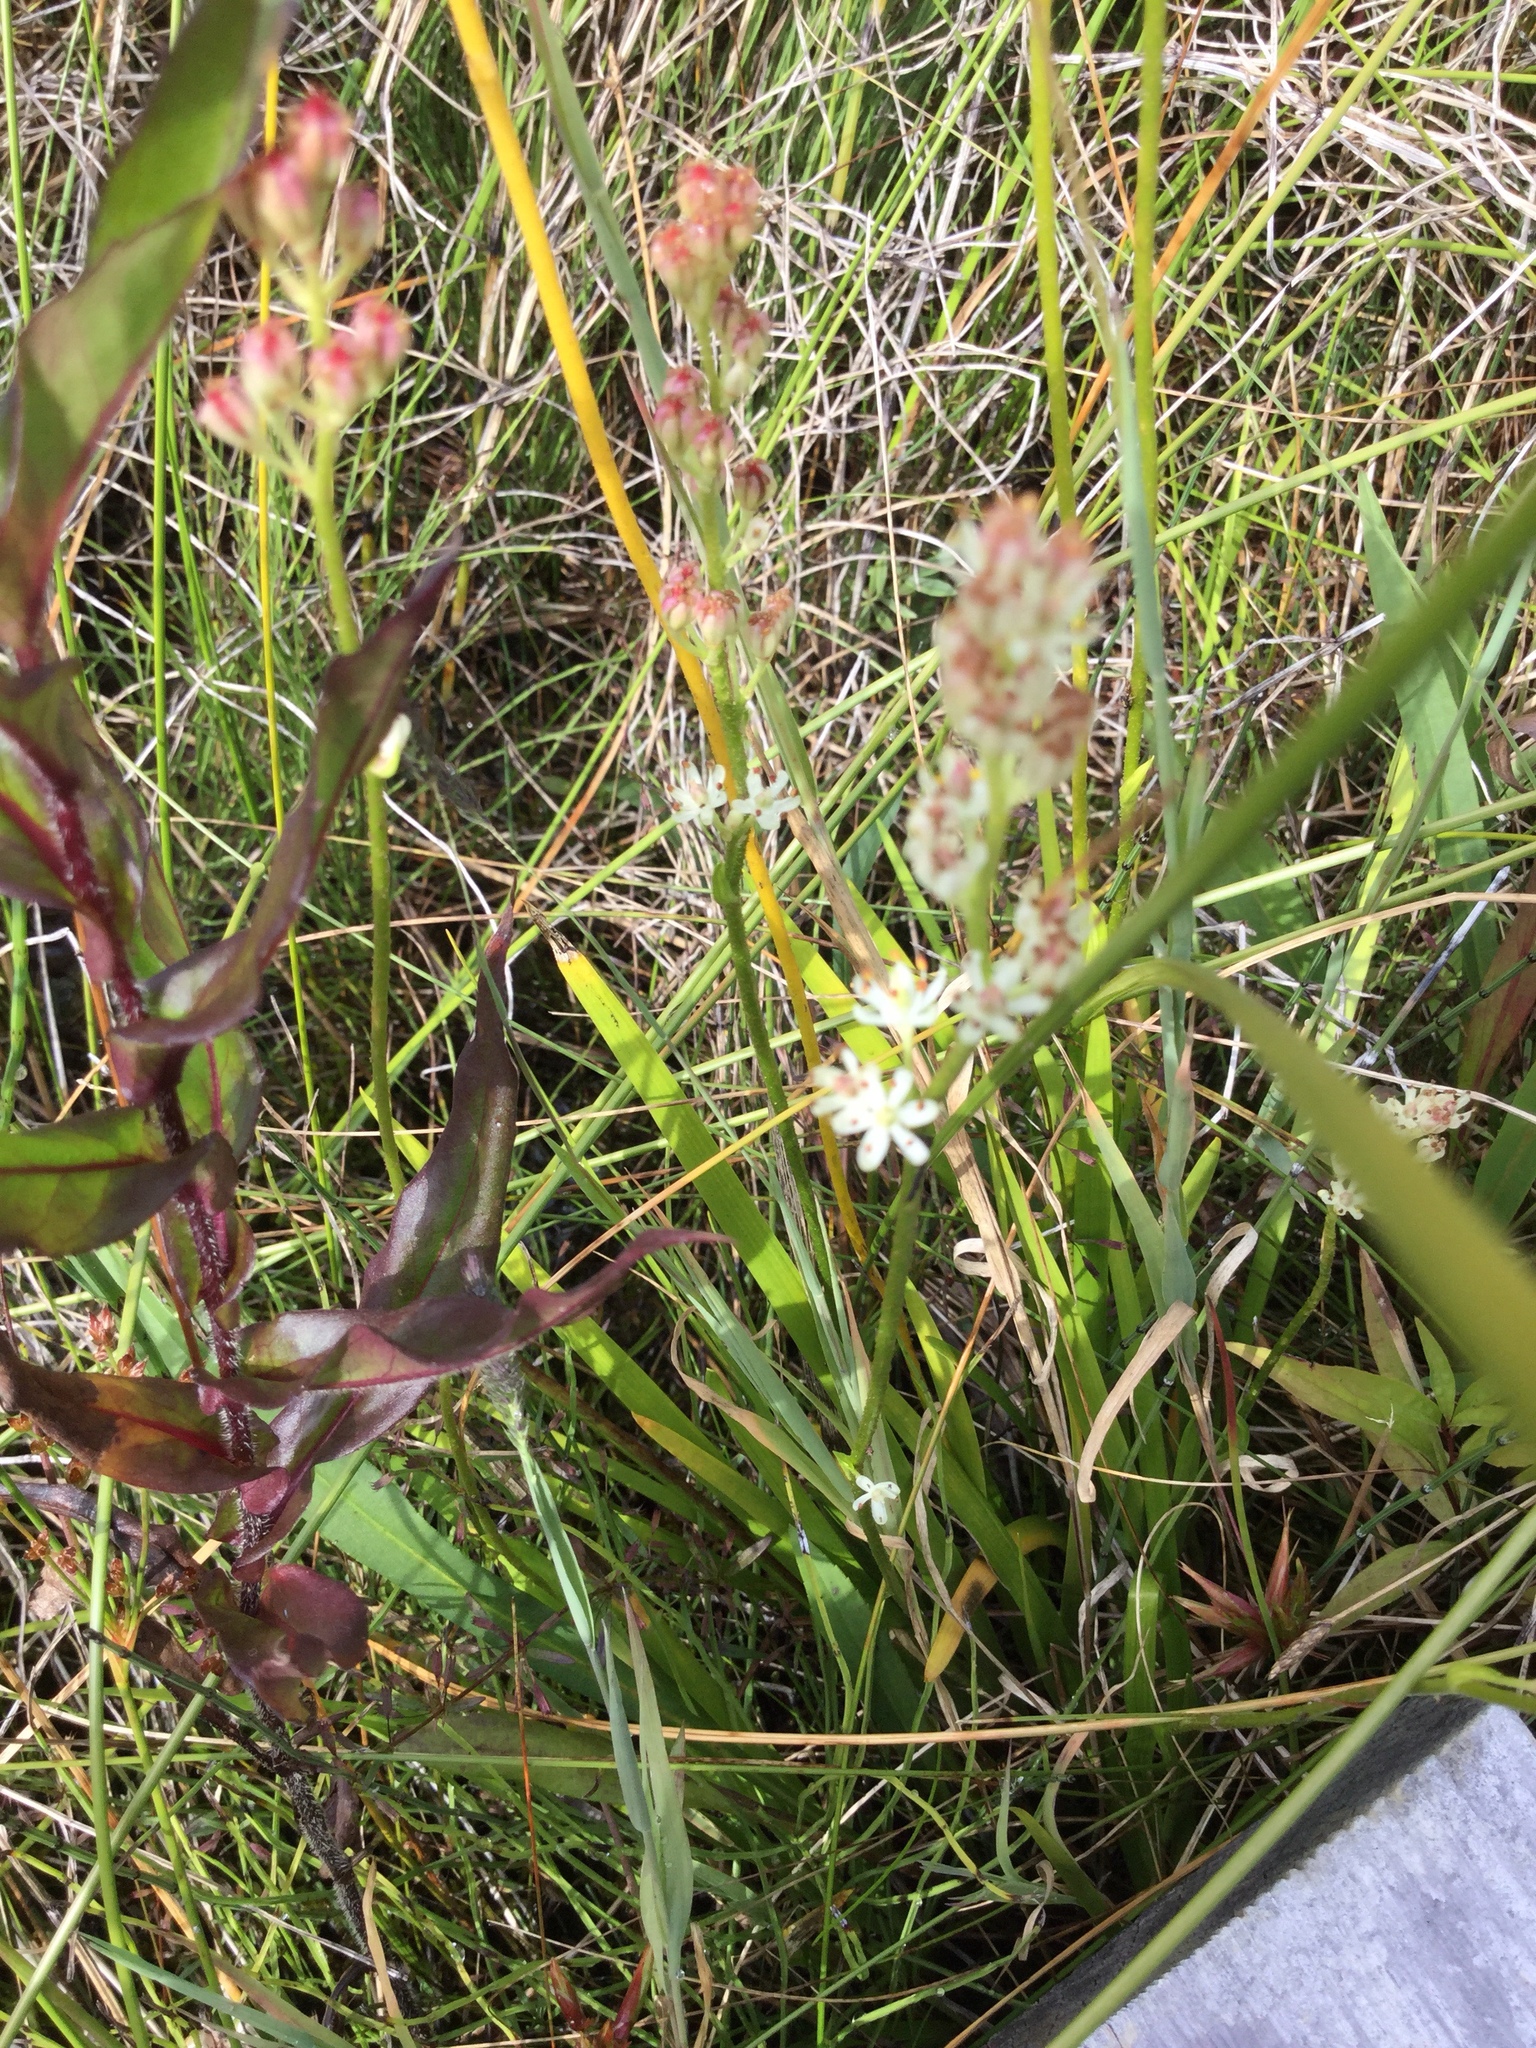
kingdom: Plantae
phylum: Tracheophyta
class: Liliopsida
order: Alismatales
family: Tofieldiaceae
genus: Triantha
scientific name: Triantha glutinosa
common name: Glutinous tofieldia
